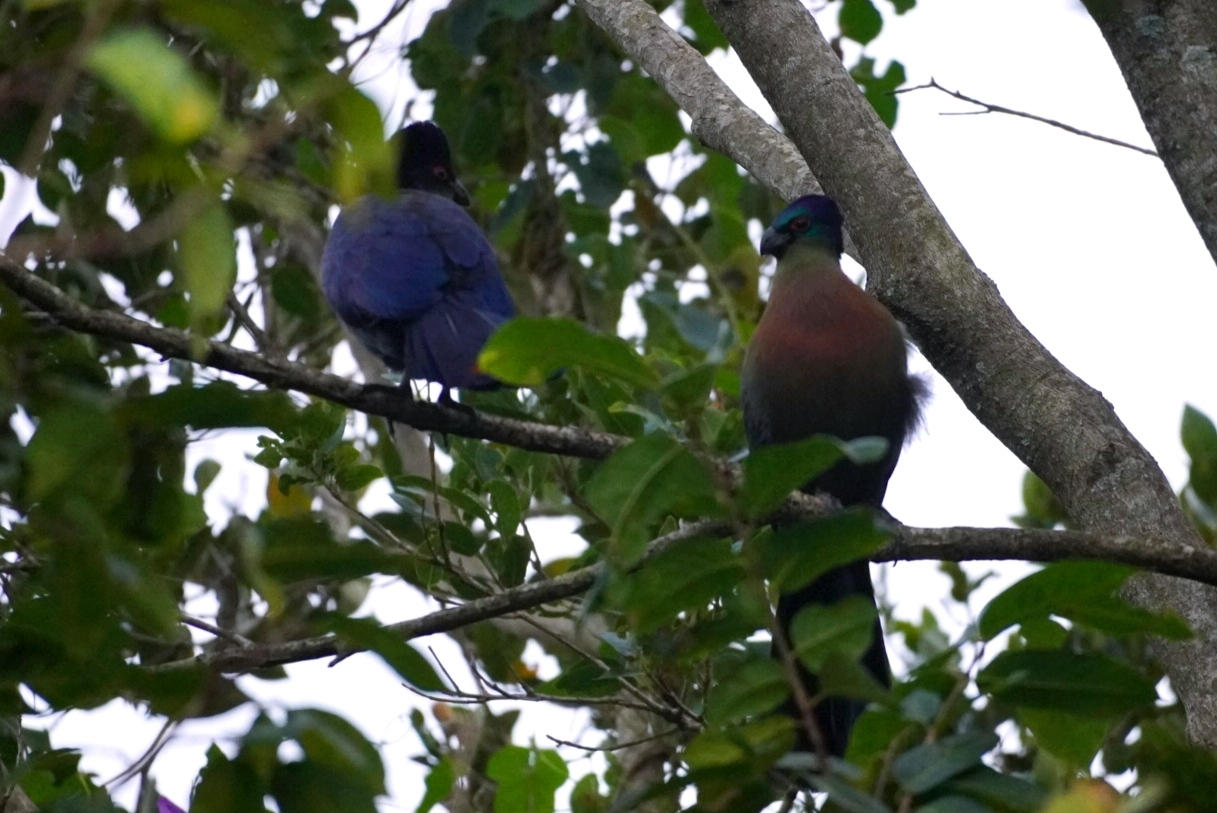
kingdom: Animalia
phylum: Chordata
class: Aves
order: Musophagiformes
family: Musophagidae
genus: Tauraco
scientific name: Tauraco porphyreolophus
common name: Purple-crested turaco
